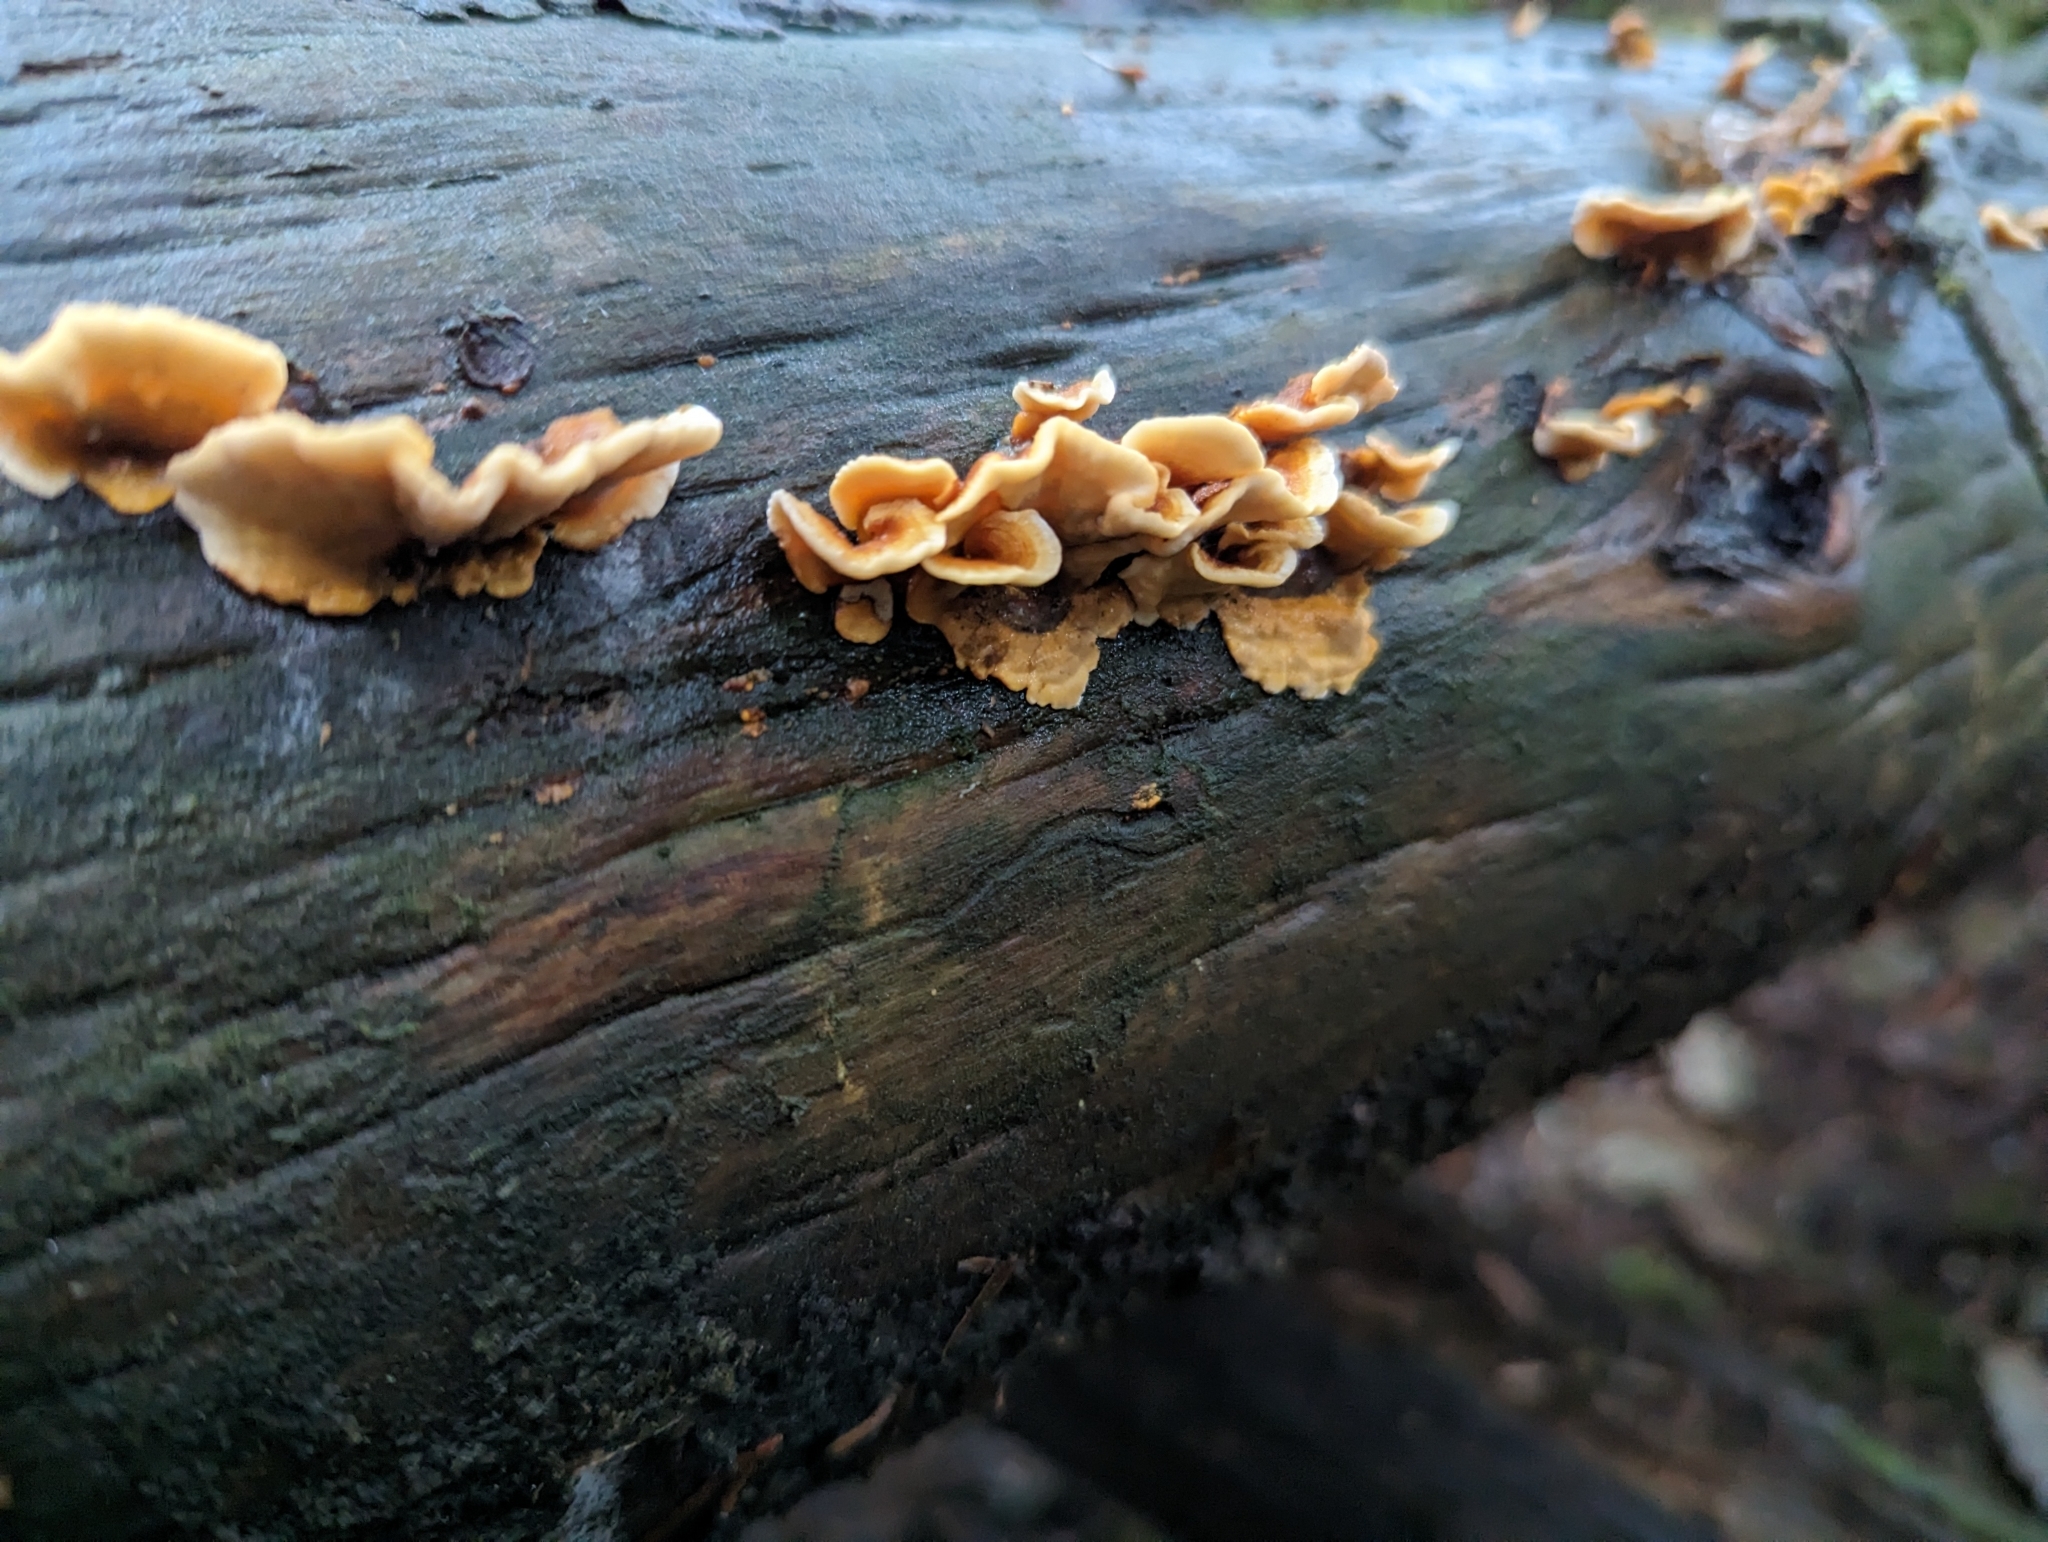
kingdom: Fungi
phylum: Basidiomycota
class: Agaricomycetes
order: Russulales
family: Stereaceae
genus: Stereum
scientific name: Stereum hirsutum
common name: Hairy curtain crust
